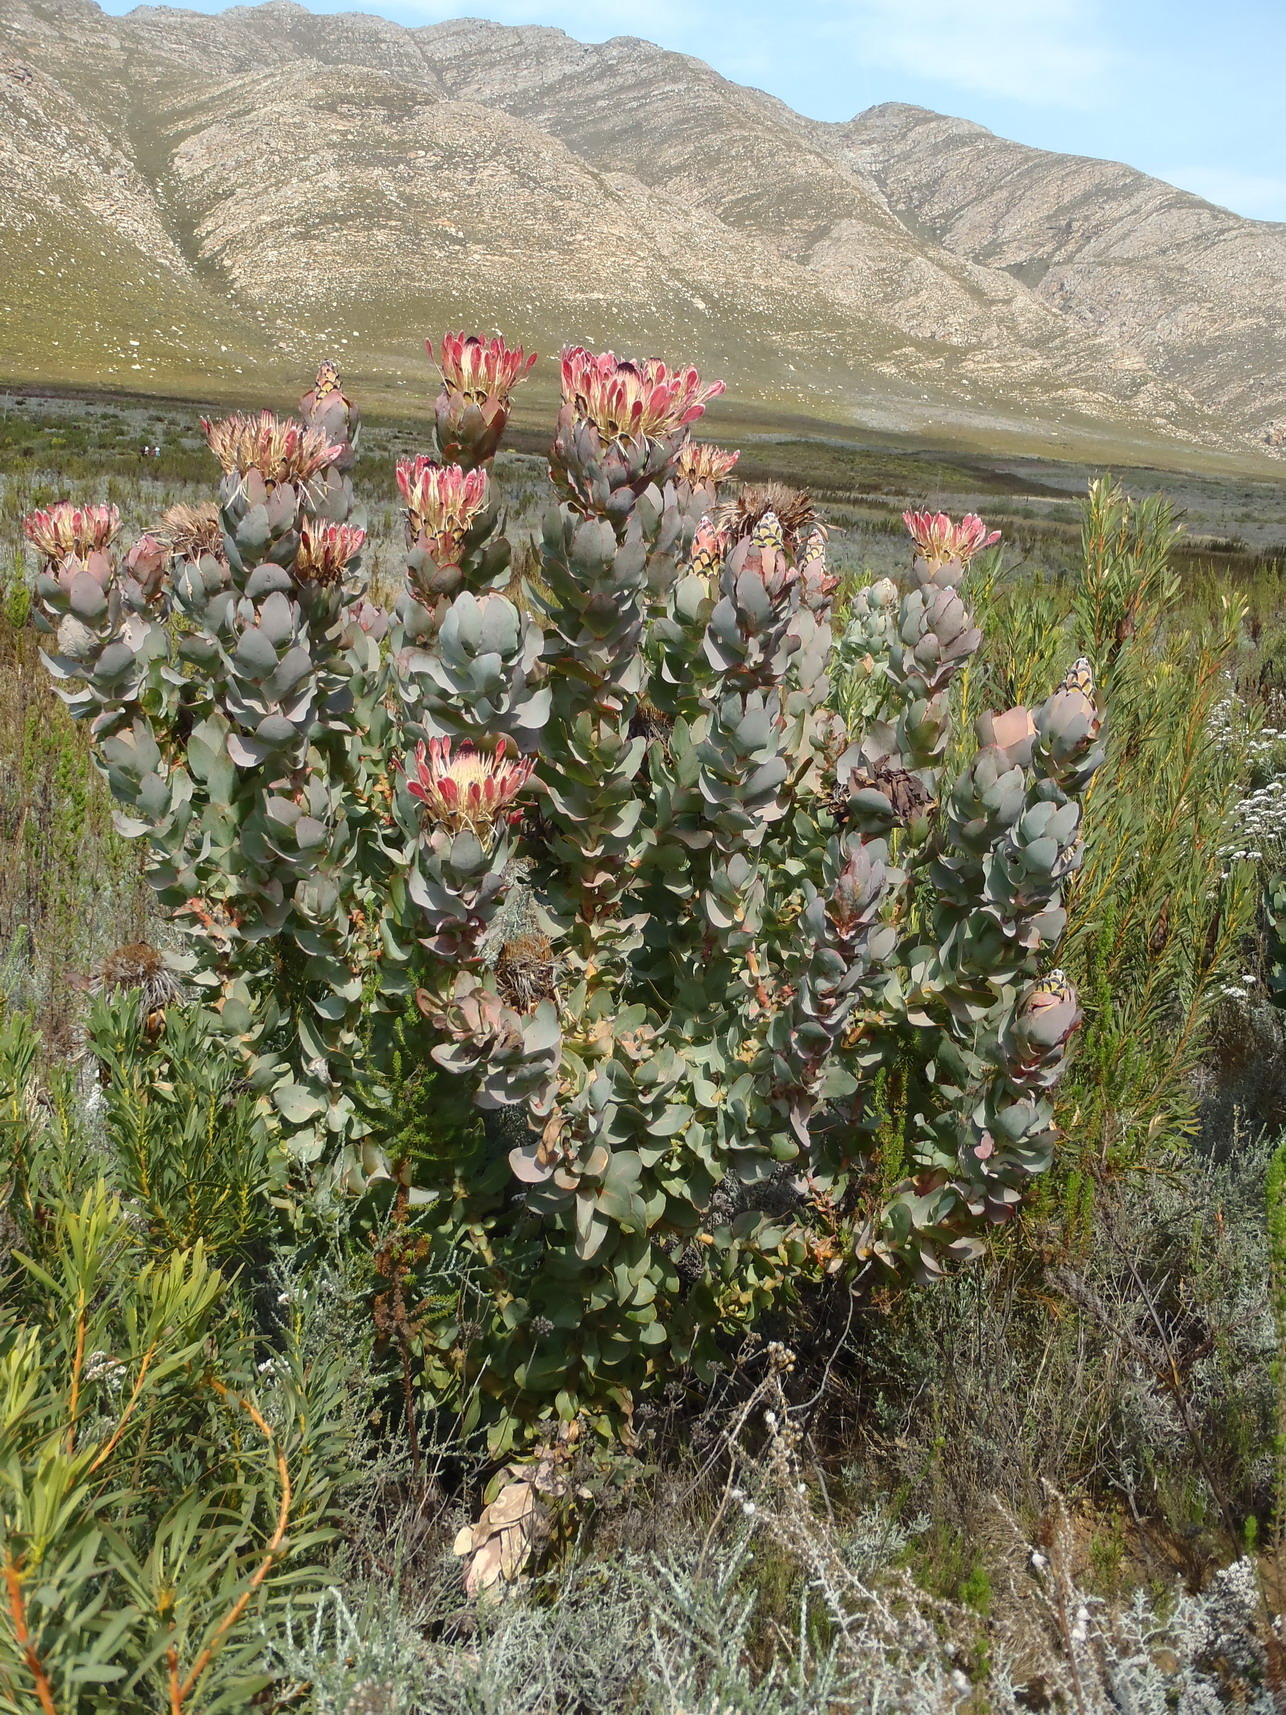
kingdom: Plantae
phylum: Tracheophyta
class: Magnoliopsida
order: Proteales
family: Proteaceae
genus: Protea
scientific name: Protea eximia
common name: Broad-leaved sugarbush
